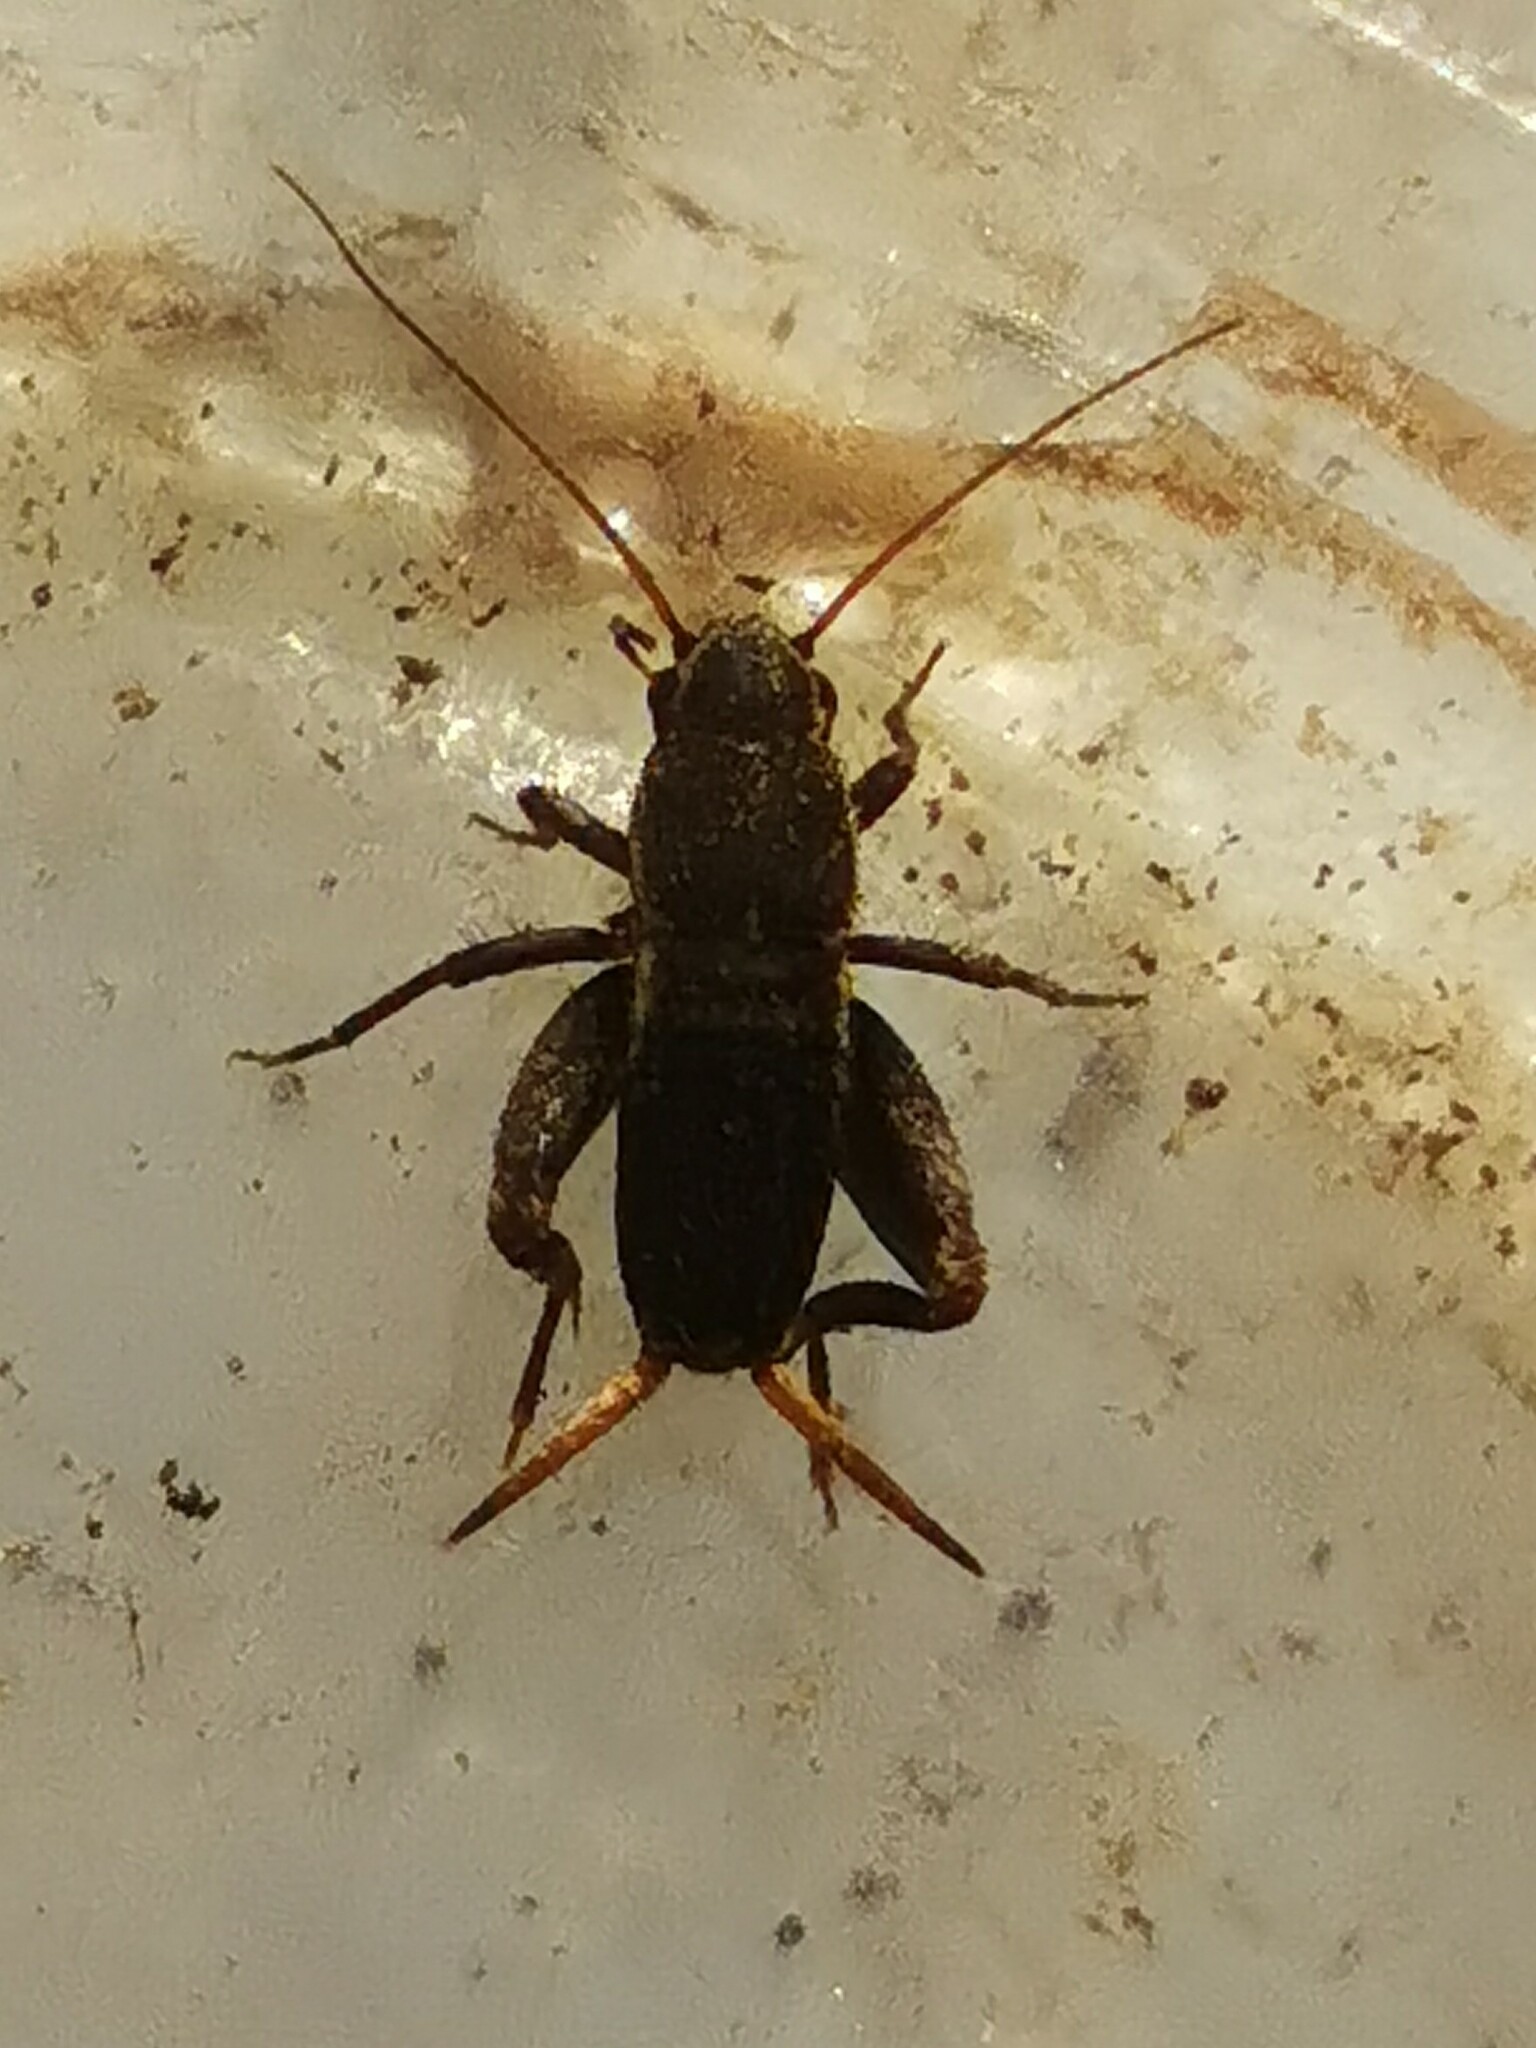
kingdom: Animalia
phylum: Arthropoda
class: Insecta
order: Orthoptera
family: Mogoplistidae
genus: Mogoplistes
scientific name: Mogoplistes brunneus
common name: Brown scale-cricket
